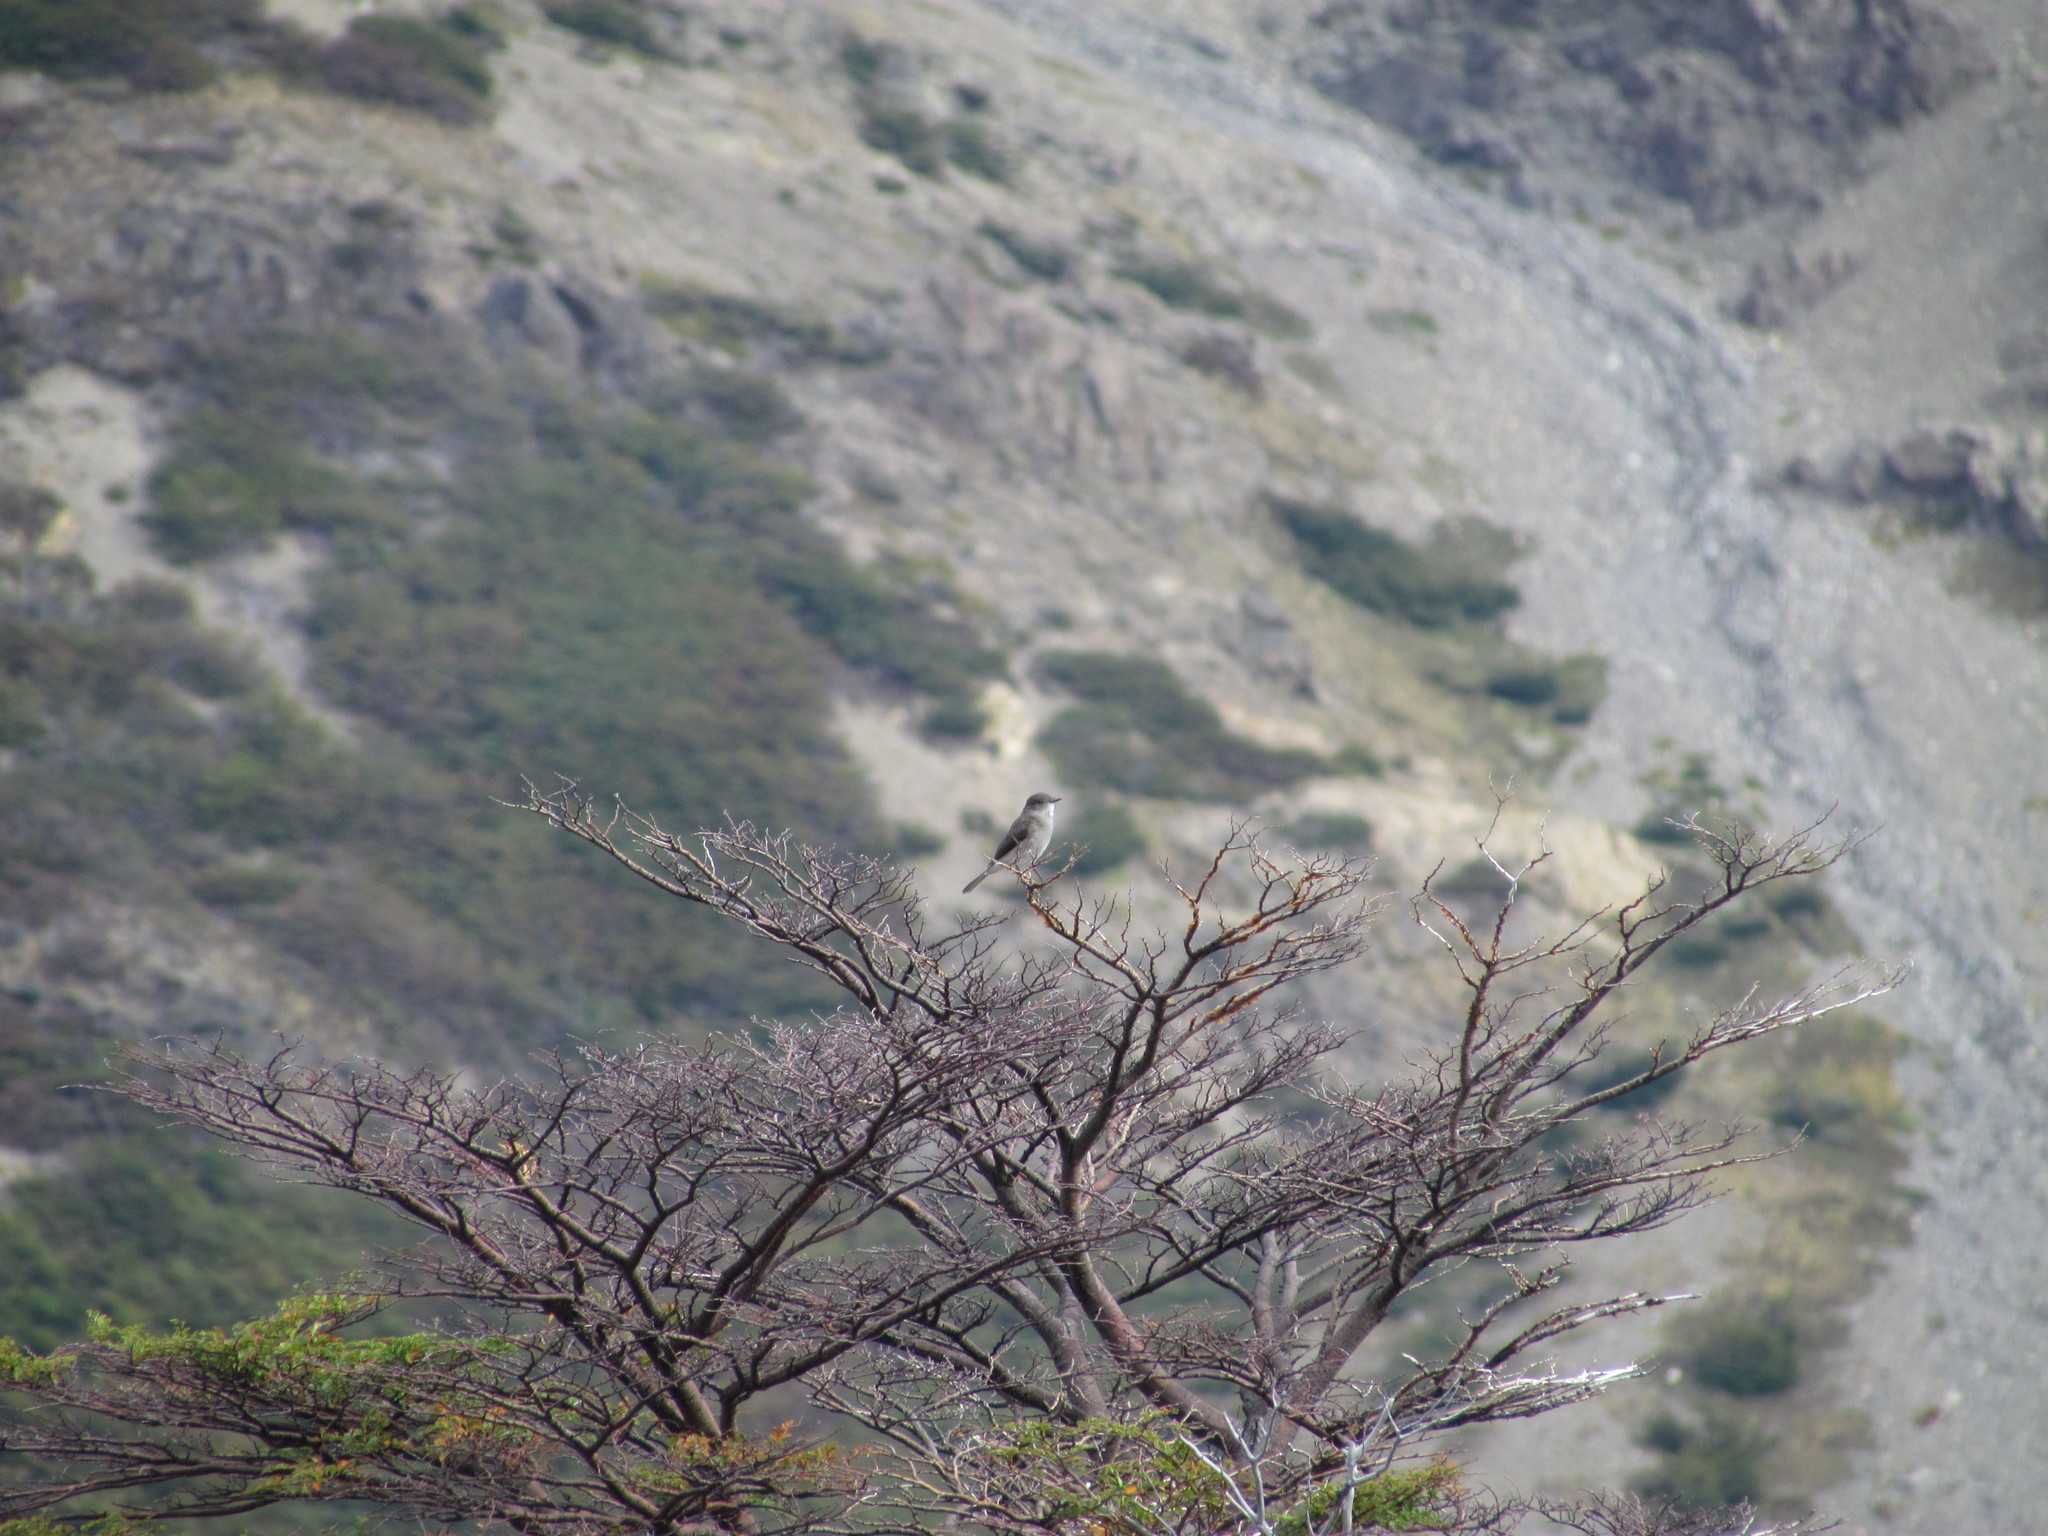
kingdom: Animalia
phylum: Chordata
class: Aves
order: Passeriformes
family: Tyrannidae
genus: Xolmis
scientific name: Xolmis pyrope
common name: Fire-eyed diucon
